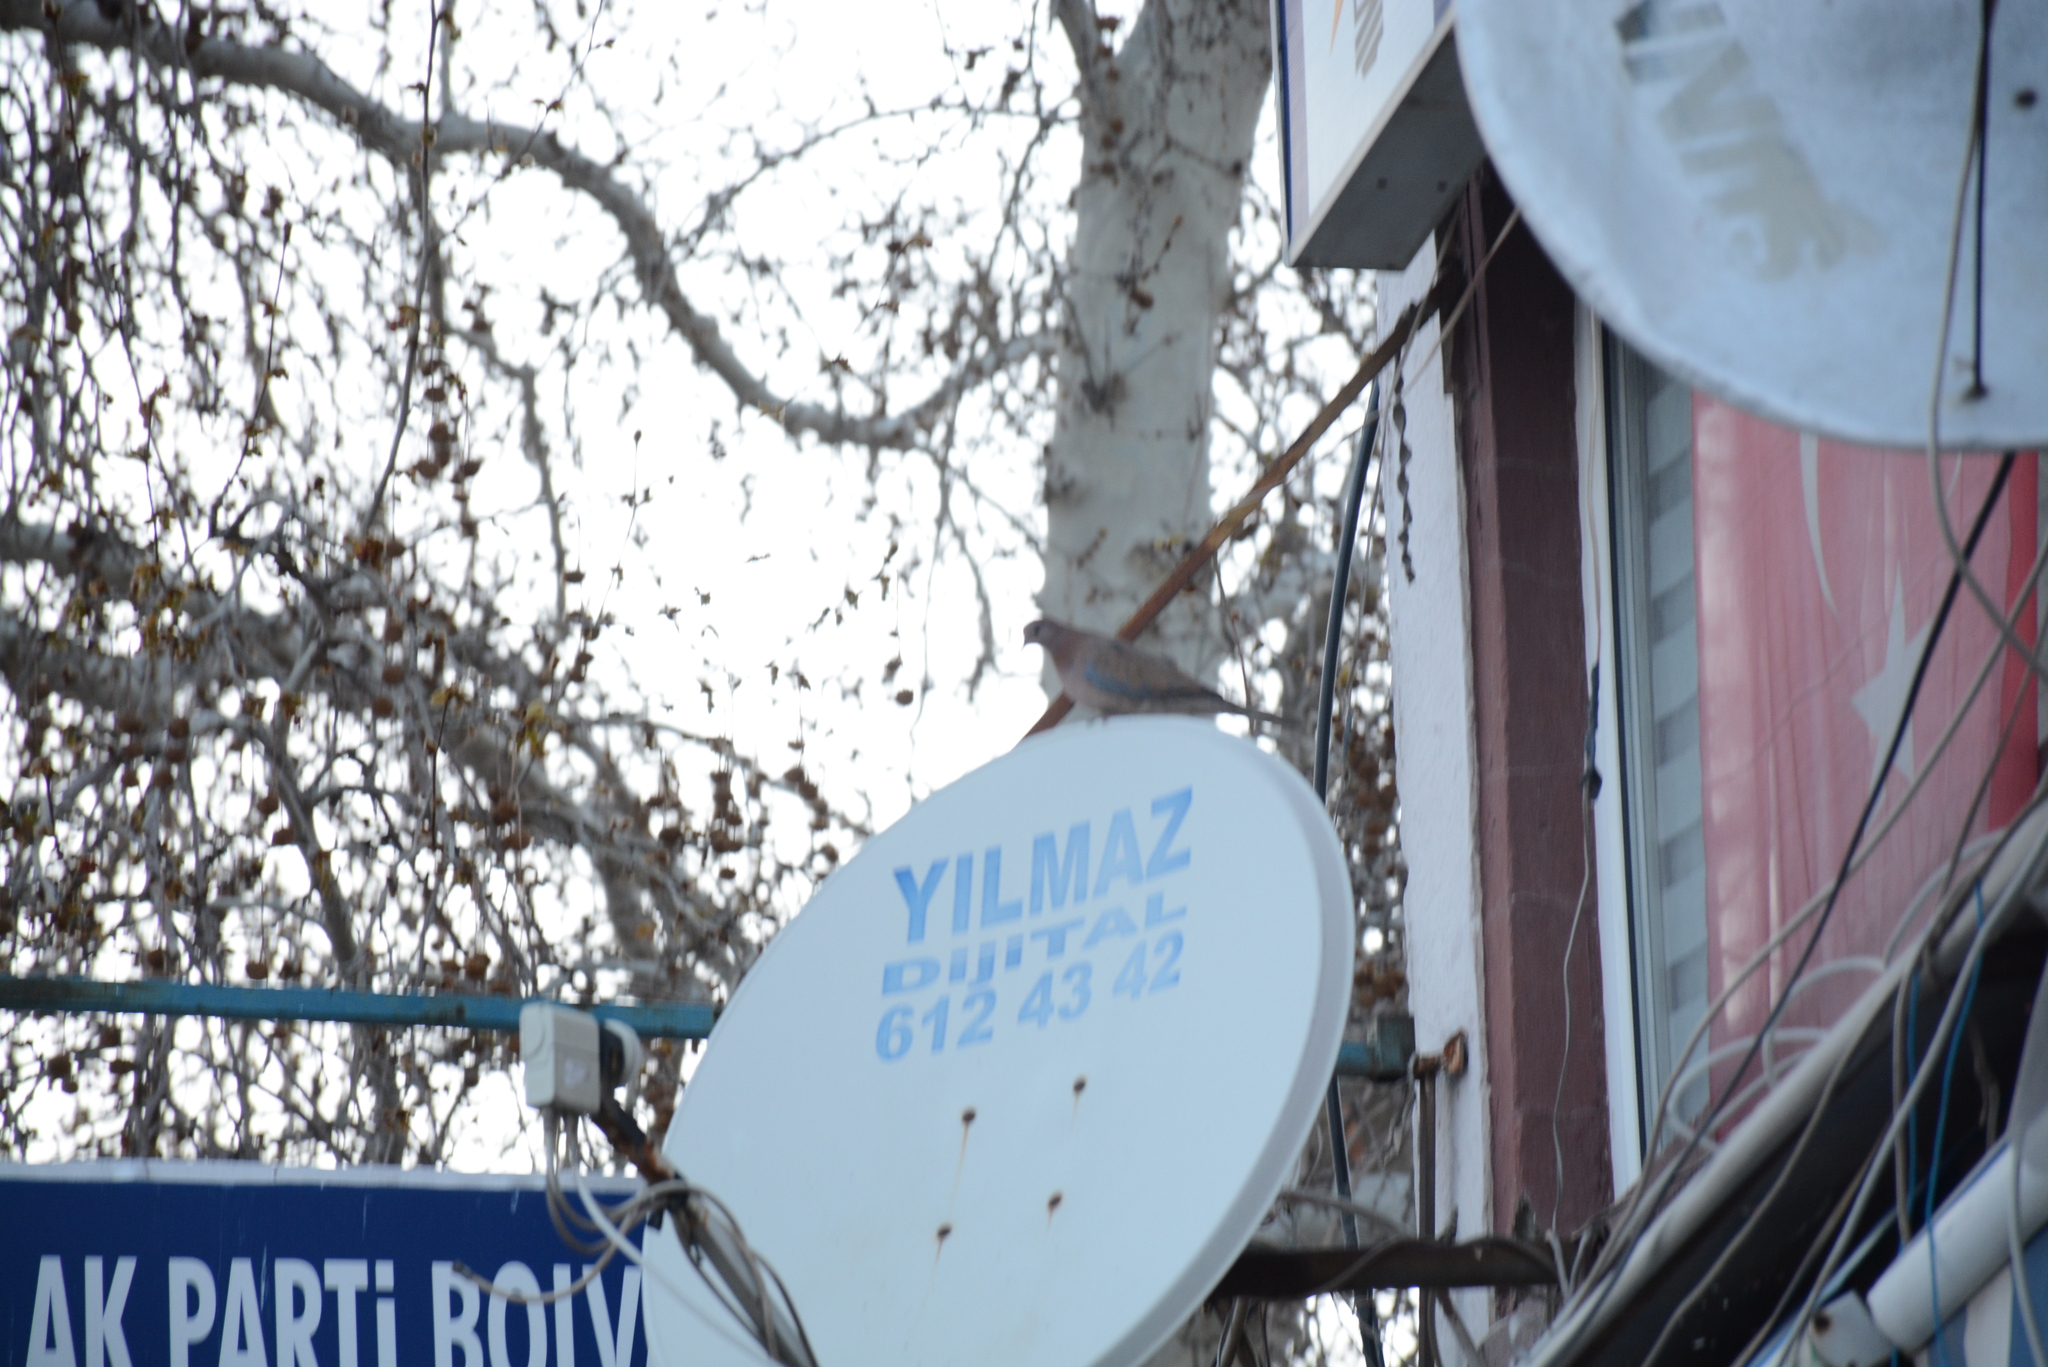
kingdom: Animalia
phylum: Chordata
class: Aves
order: Columbiformes
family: Columbidae
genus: Spilopelia
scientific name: Spilopelia senegalensis
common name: Laughing dove
